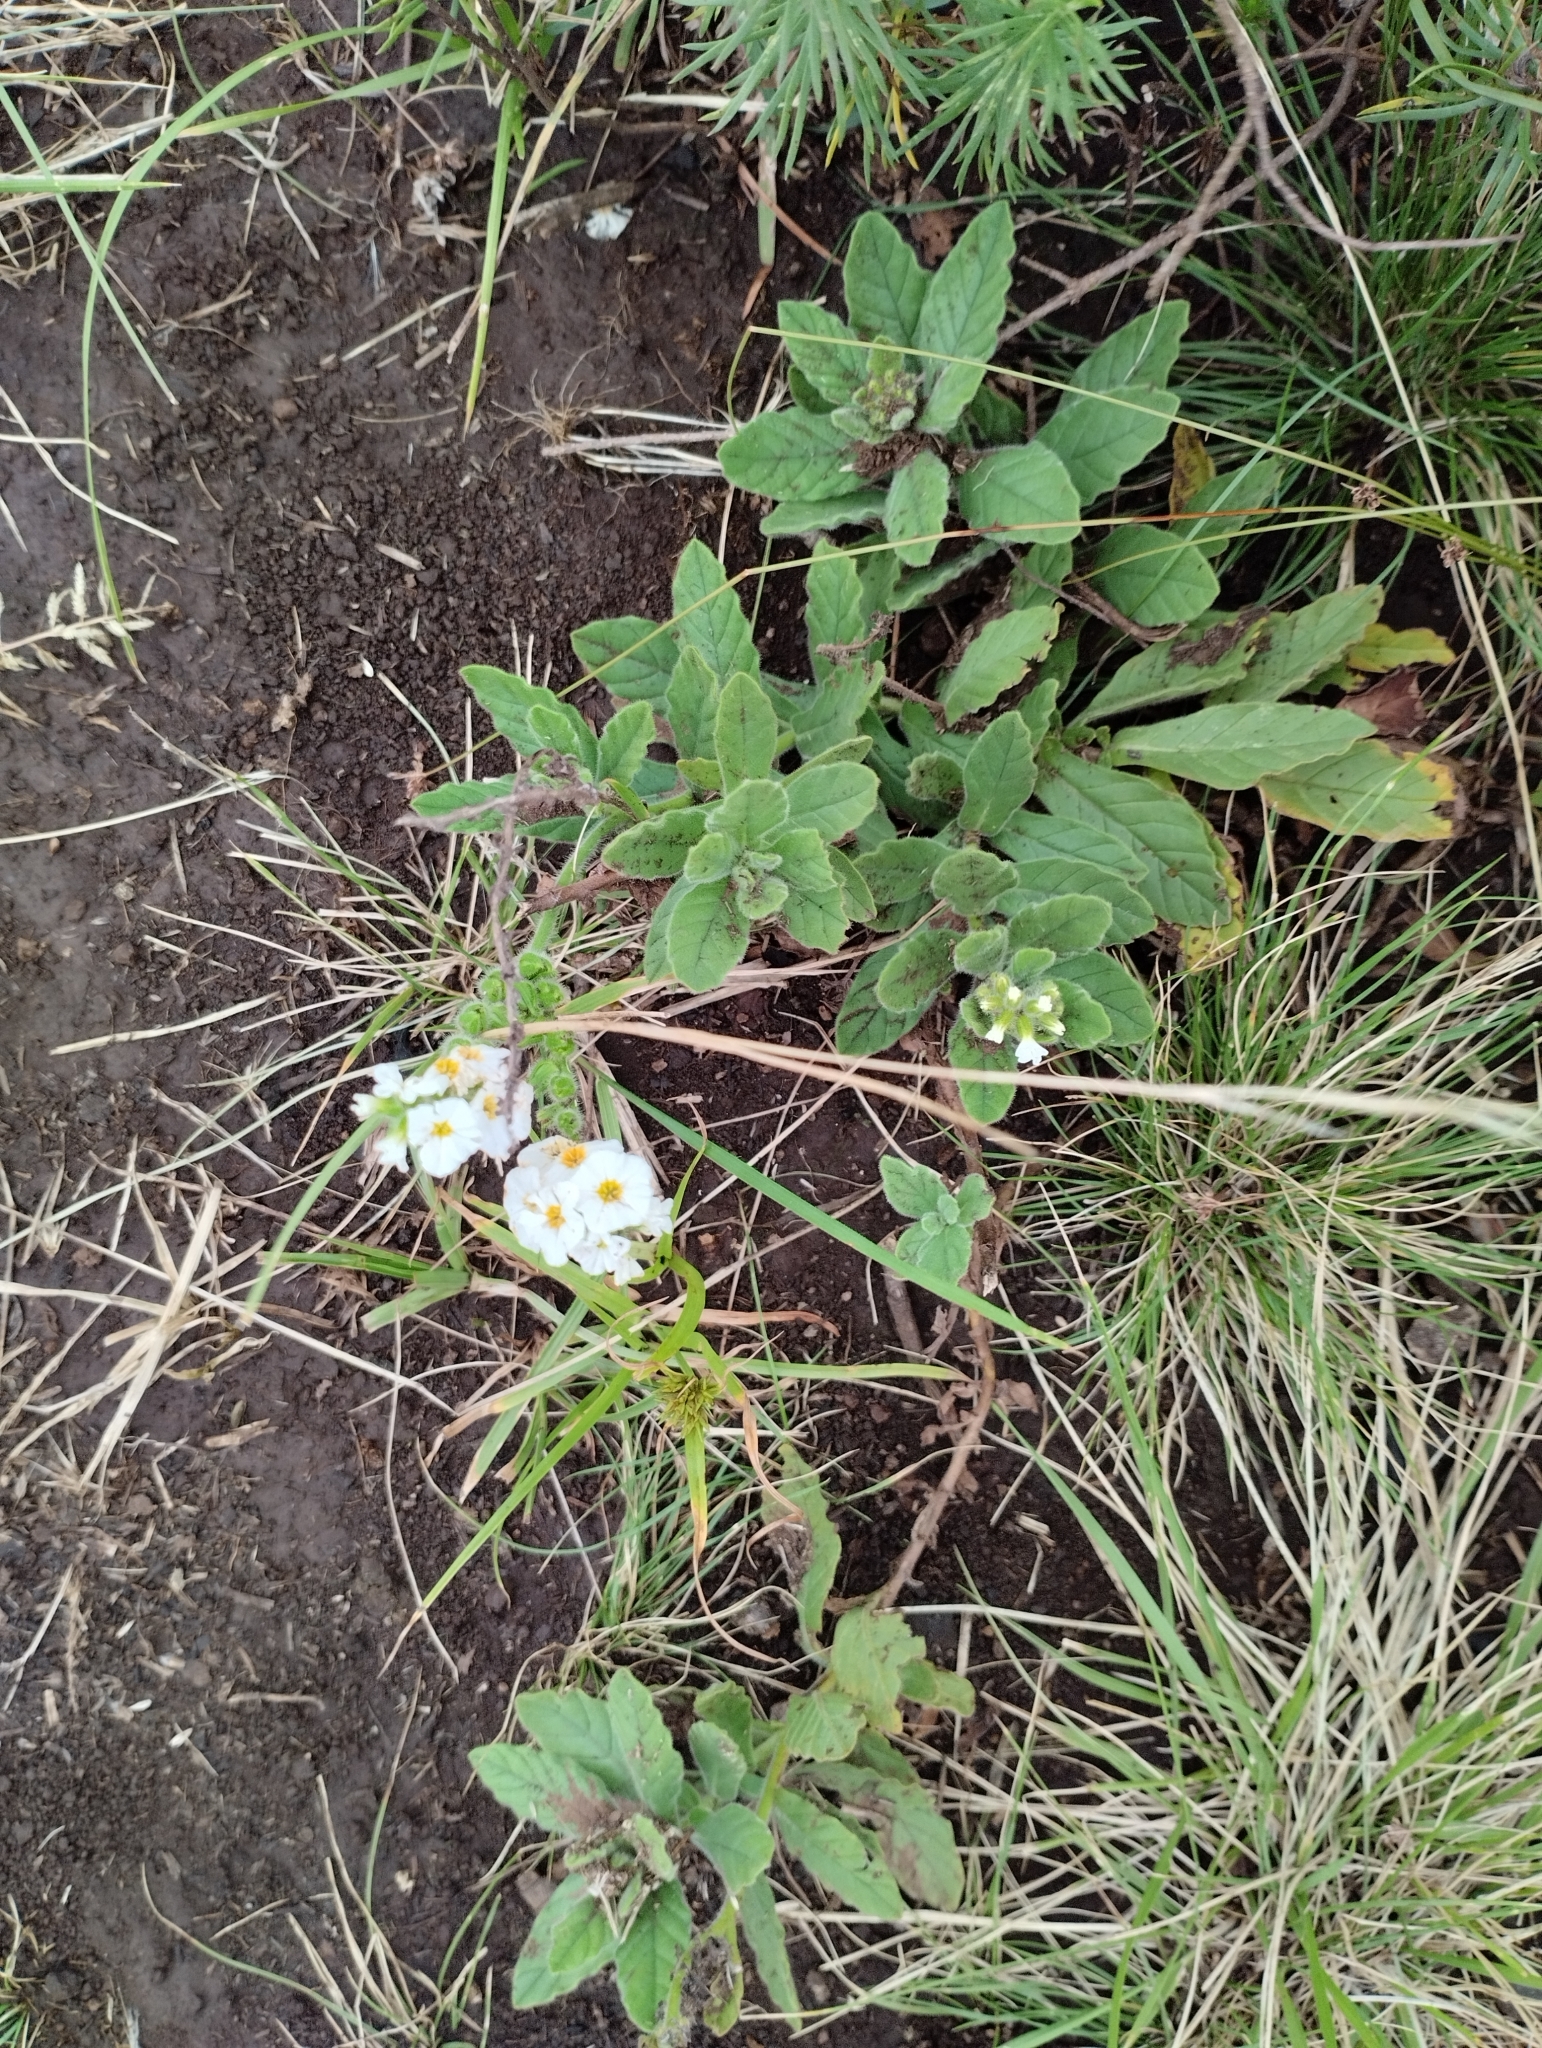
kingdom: Plantae
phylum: Tracheophyta
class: Magnoliopsida
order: Boraginales
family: Heliotropiaceae
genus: Heliotropium
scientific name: Heliotropium amplexicaule
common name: Clasping heliotrope
